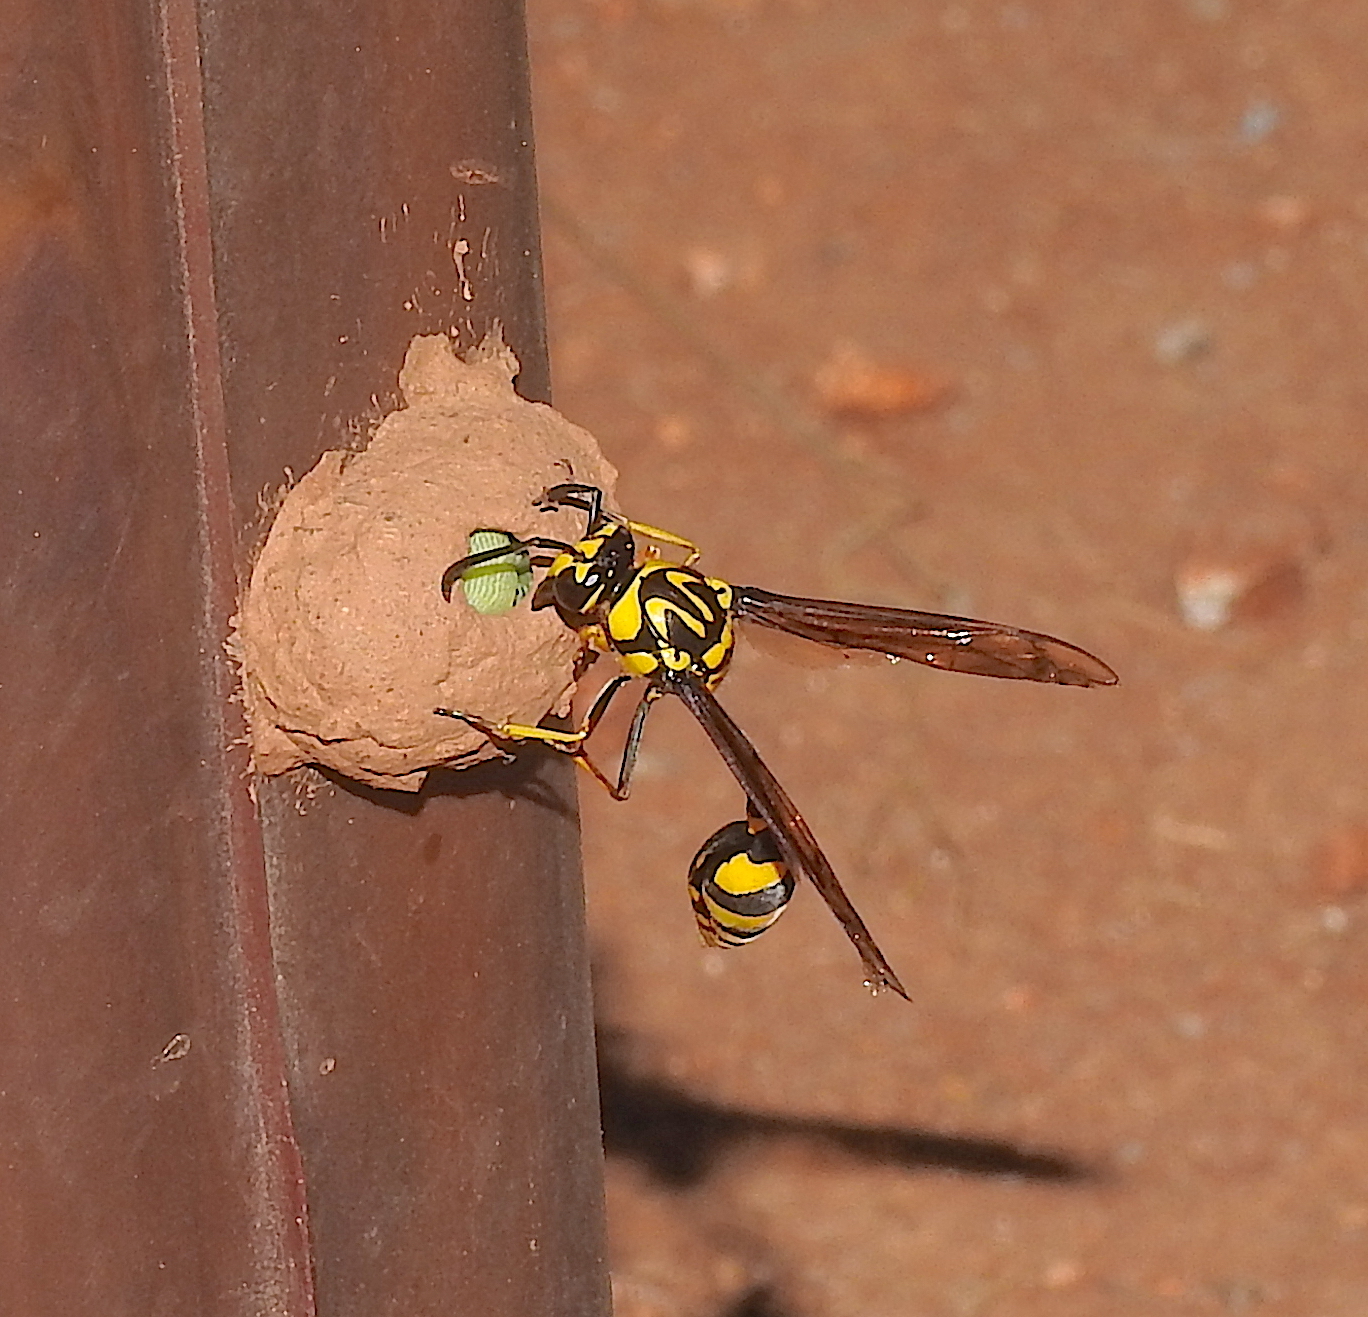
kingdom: Animalia
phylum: Arthropoda
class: Insecta
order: Hymenoptera
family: Eumenidae
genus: Phimenes
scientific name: Phimenes flavopictus
